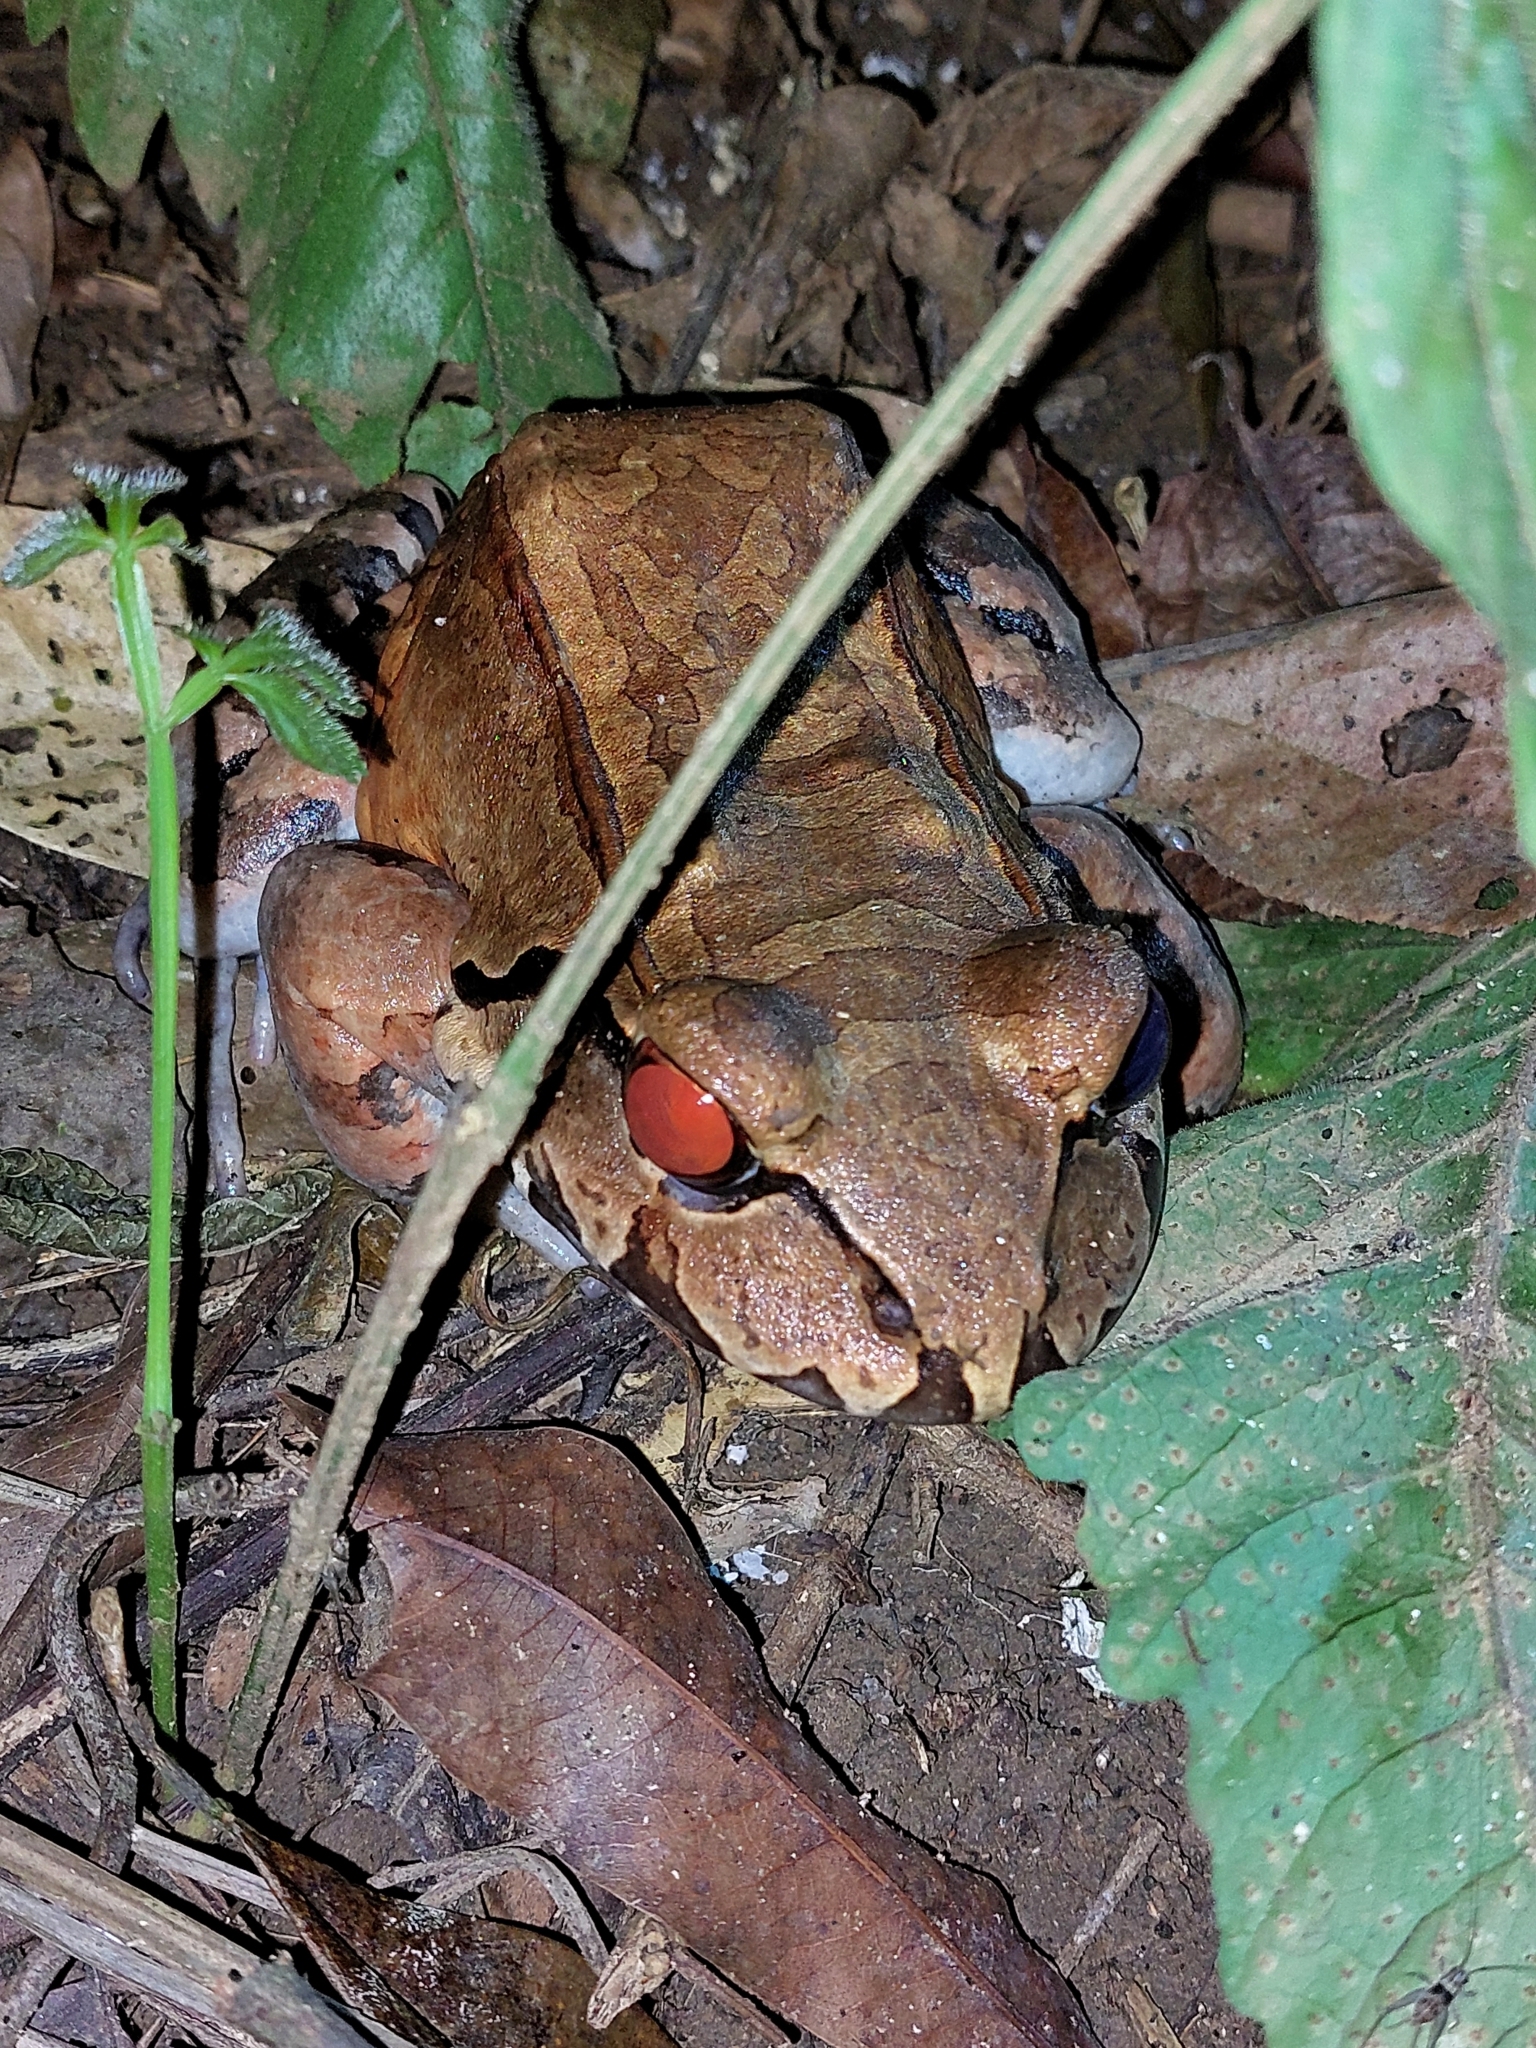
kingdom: Animalia
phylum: Chordata
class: Amphibia
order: Anura
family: Leptodactylidae
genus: Leptodactylus
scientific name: Leptodactylus savagei
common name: Savage's thin-toed frog
